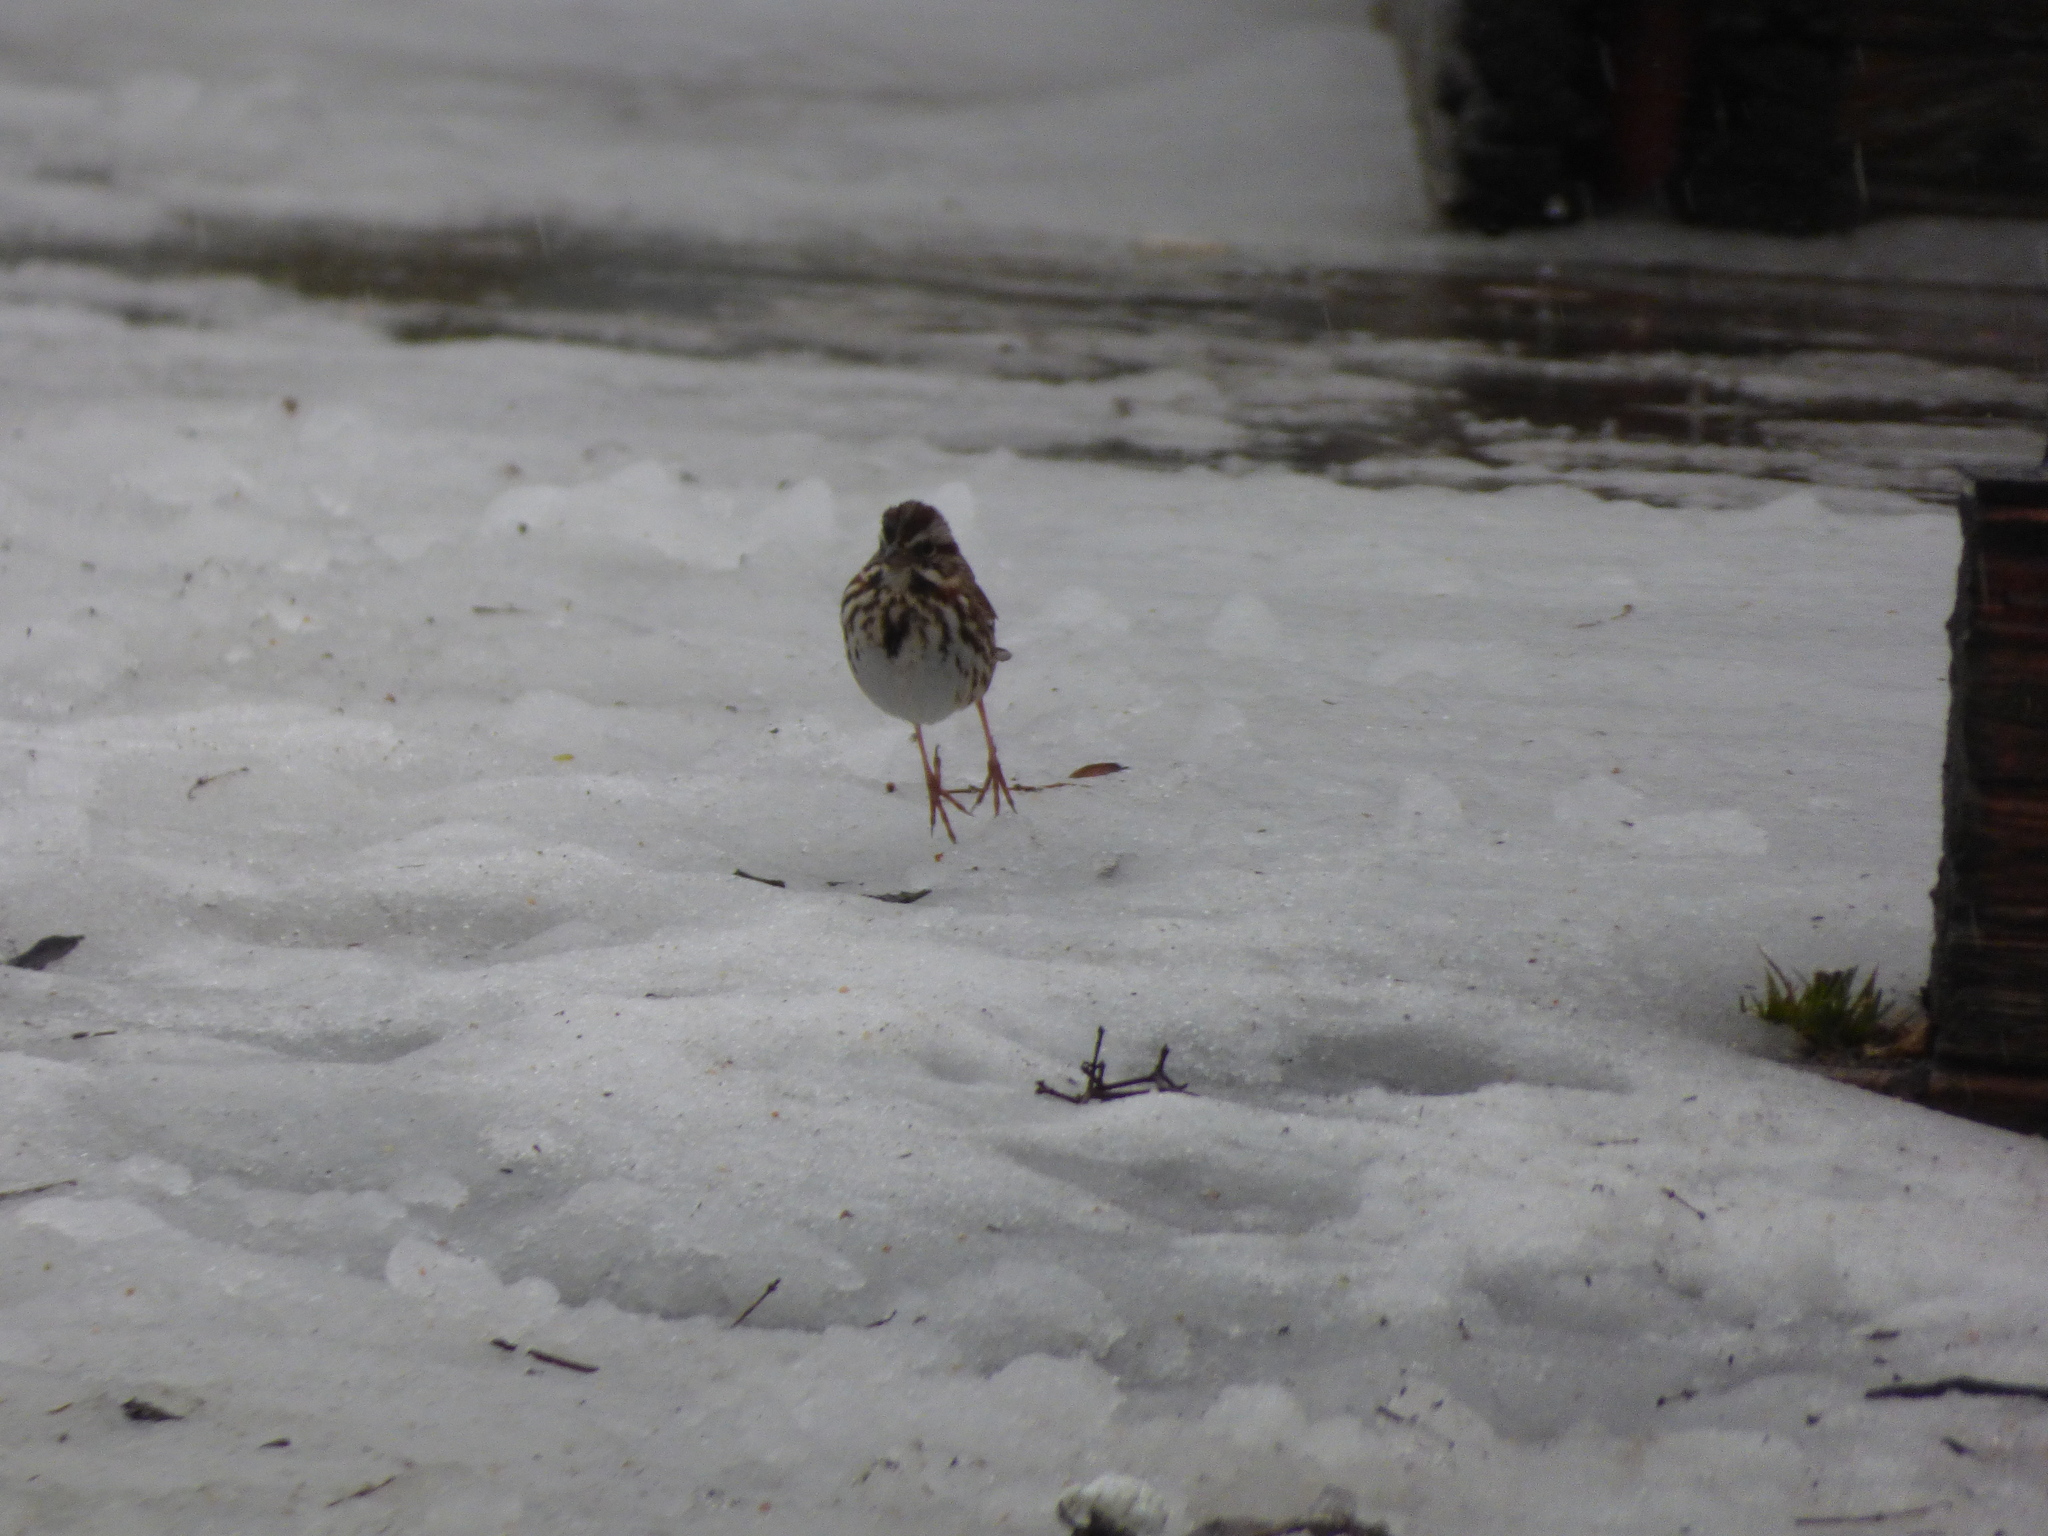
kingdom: Animalia
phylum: Chordata
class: Aves
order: Passeriformes
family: Passerellidae
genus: Melospiza
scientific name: Melospiza melodia
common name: Song sparrow
